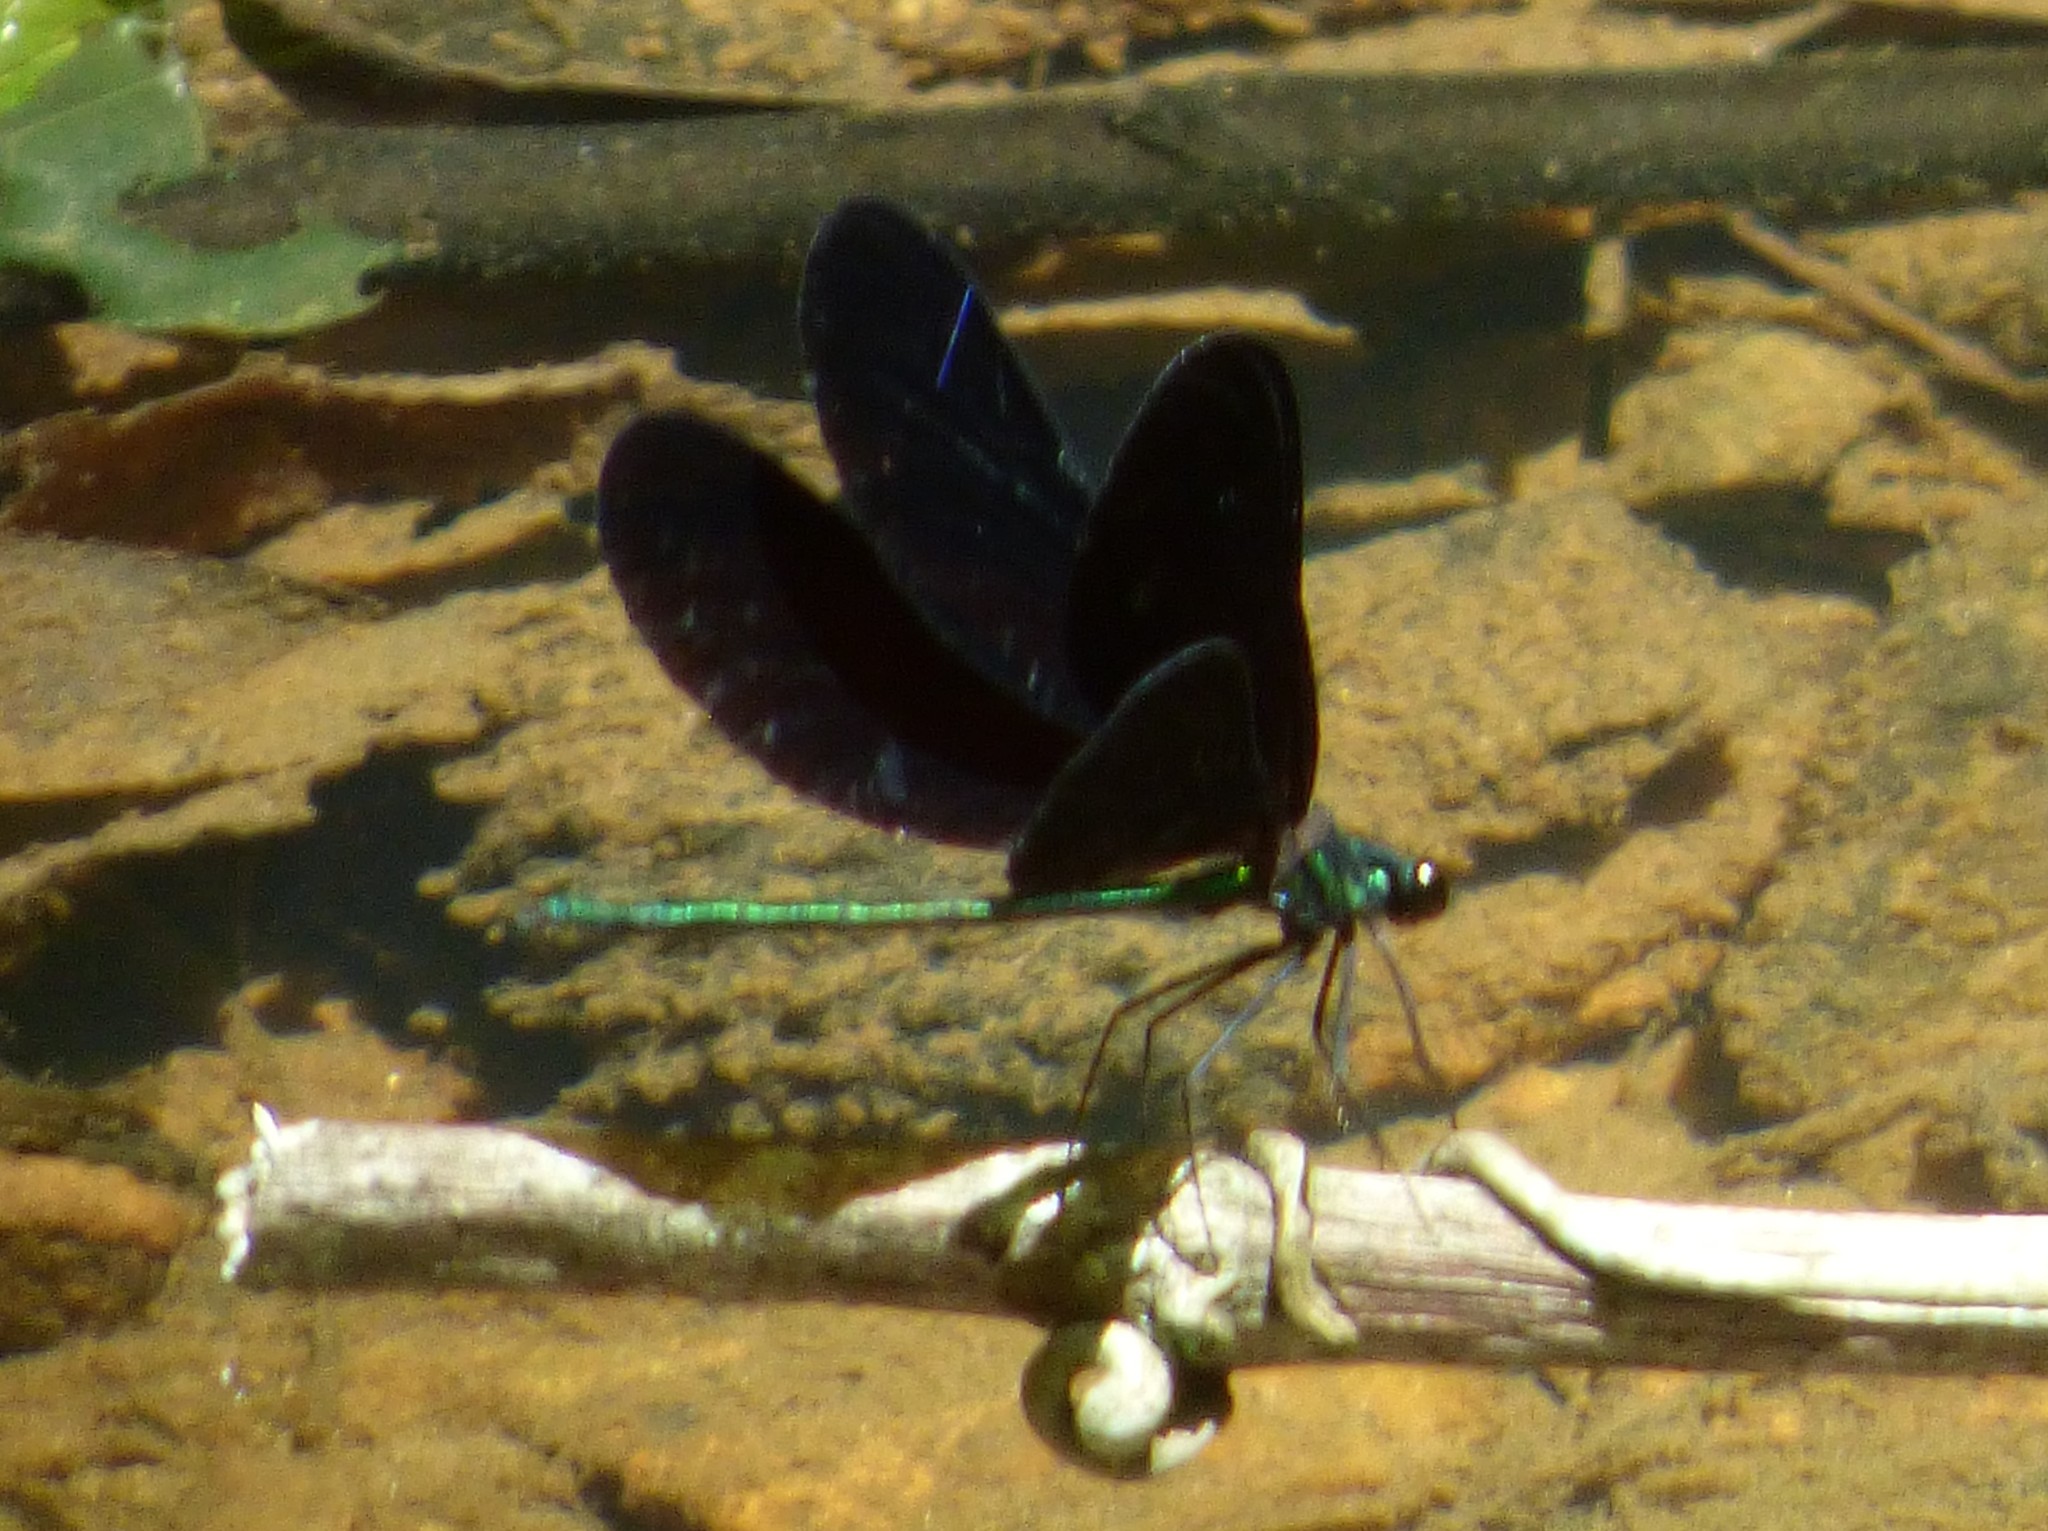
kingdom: Animalia
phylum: Arthropoda
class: Insecta
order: Odonata
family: Calopterygidae
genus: Calopteryx
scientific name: Calopteryx maculata
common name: Ebony jewelwing
